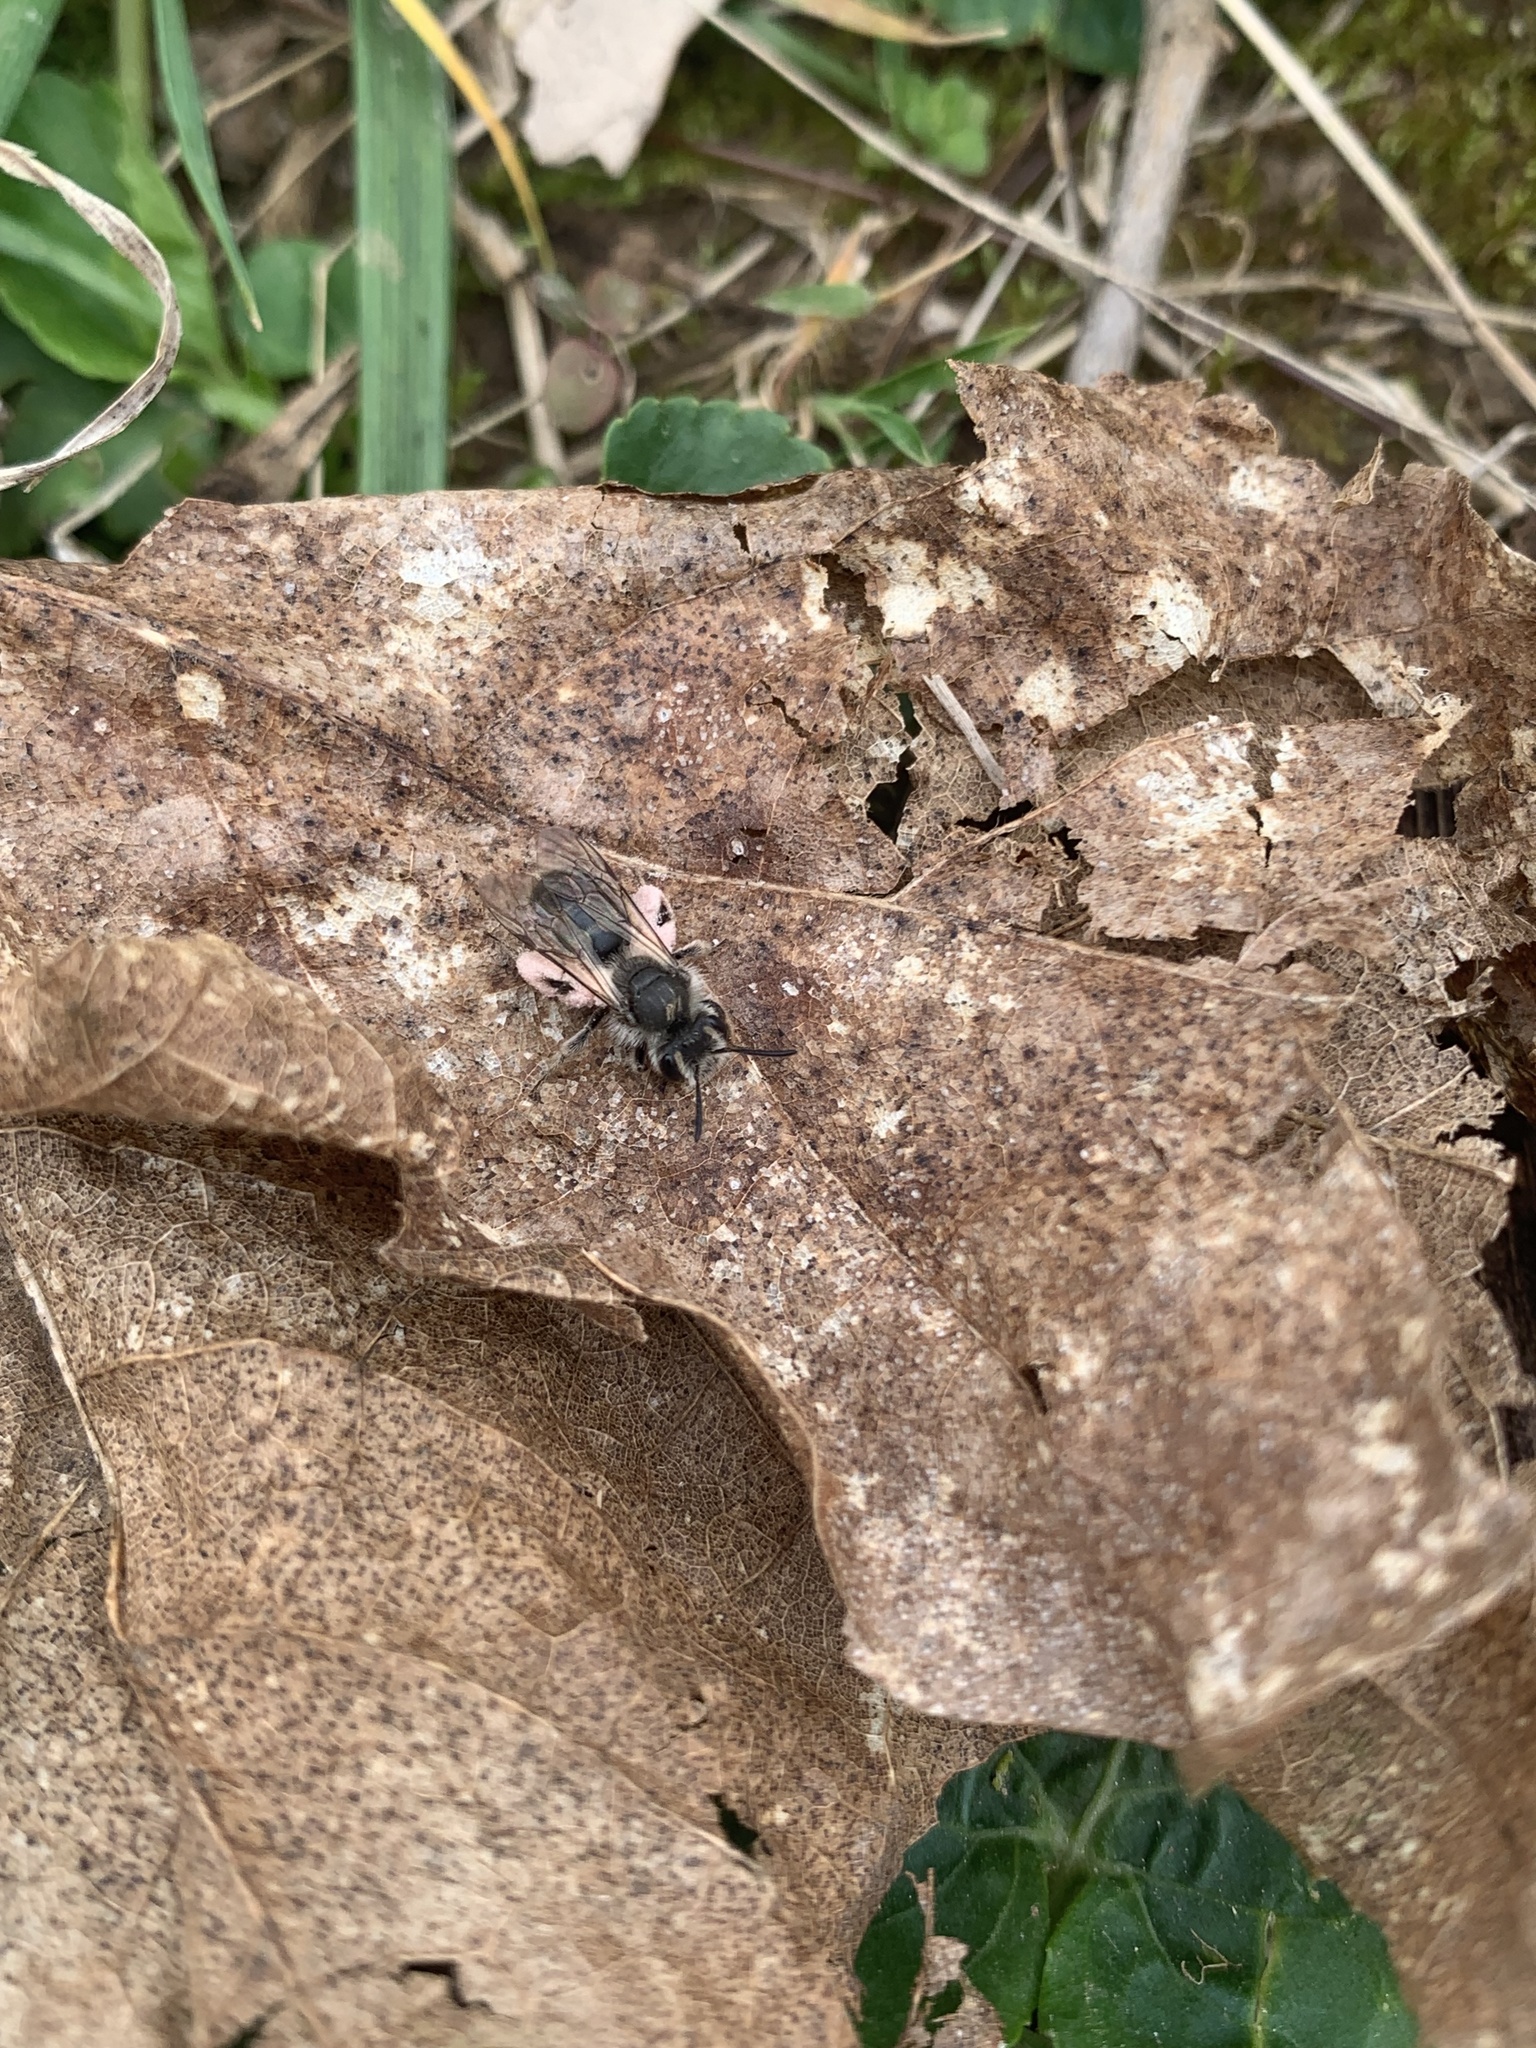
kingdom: Animalia
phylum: Arthropoda
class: Insecta
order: Hymenoptera
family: Andrenidae
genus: Andrena
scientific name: Andrena erigeniae
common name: Spring beauty miner
